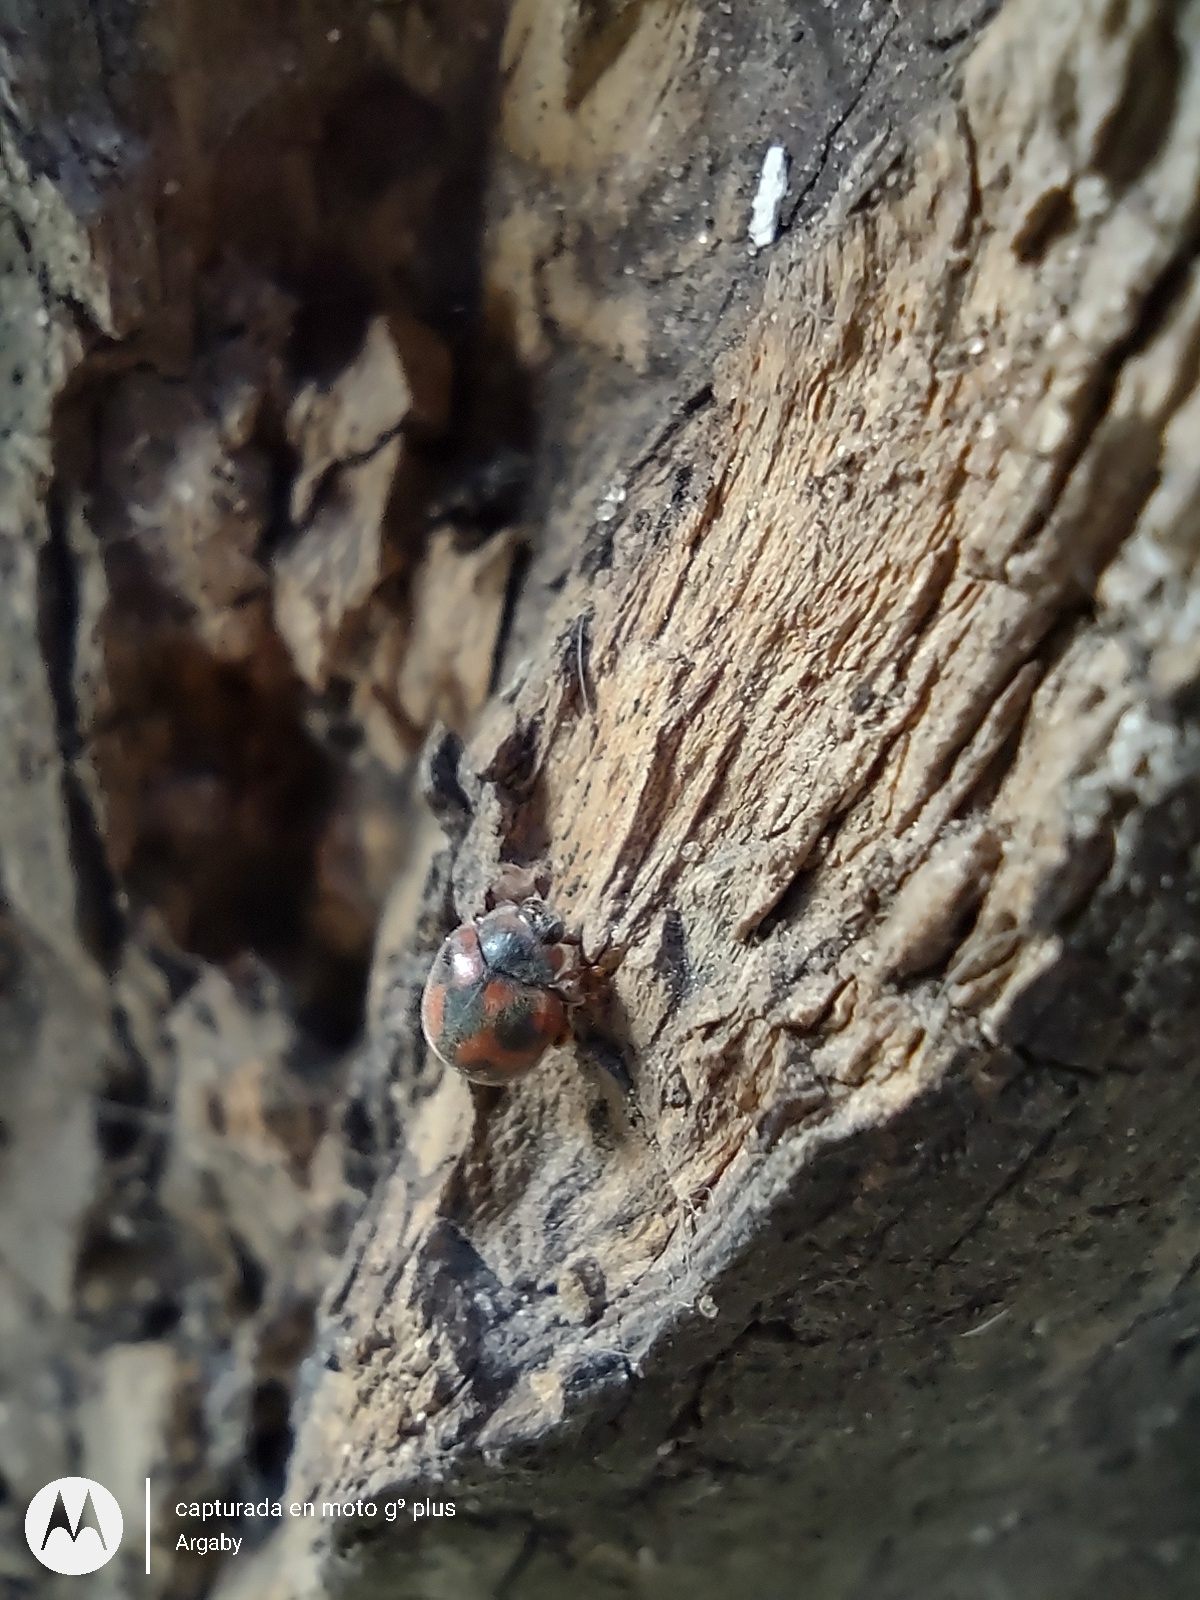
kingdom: Animalia
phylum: Arthropoda
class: Insecta
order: Coleoptera
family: Coccinellidae
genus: Novius
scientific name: Novius cardinalis
